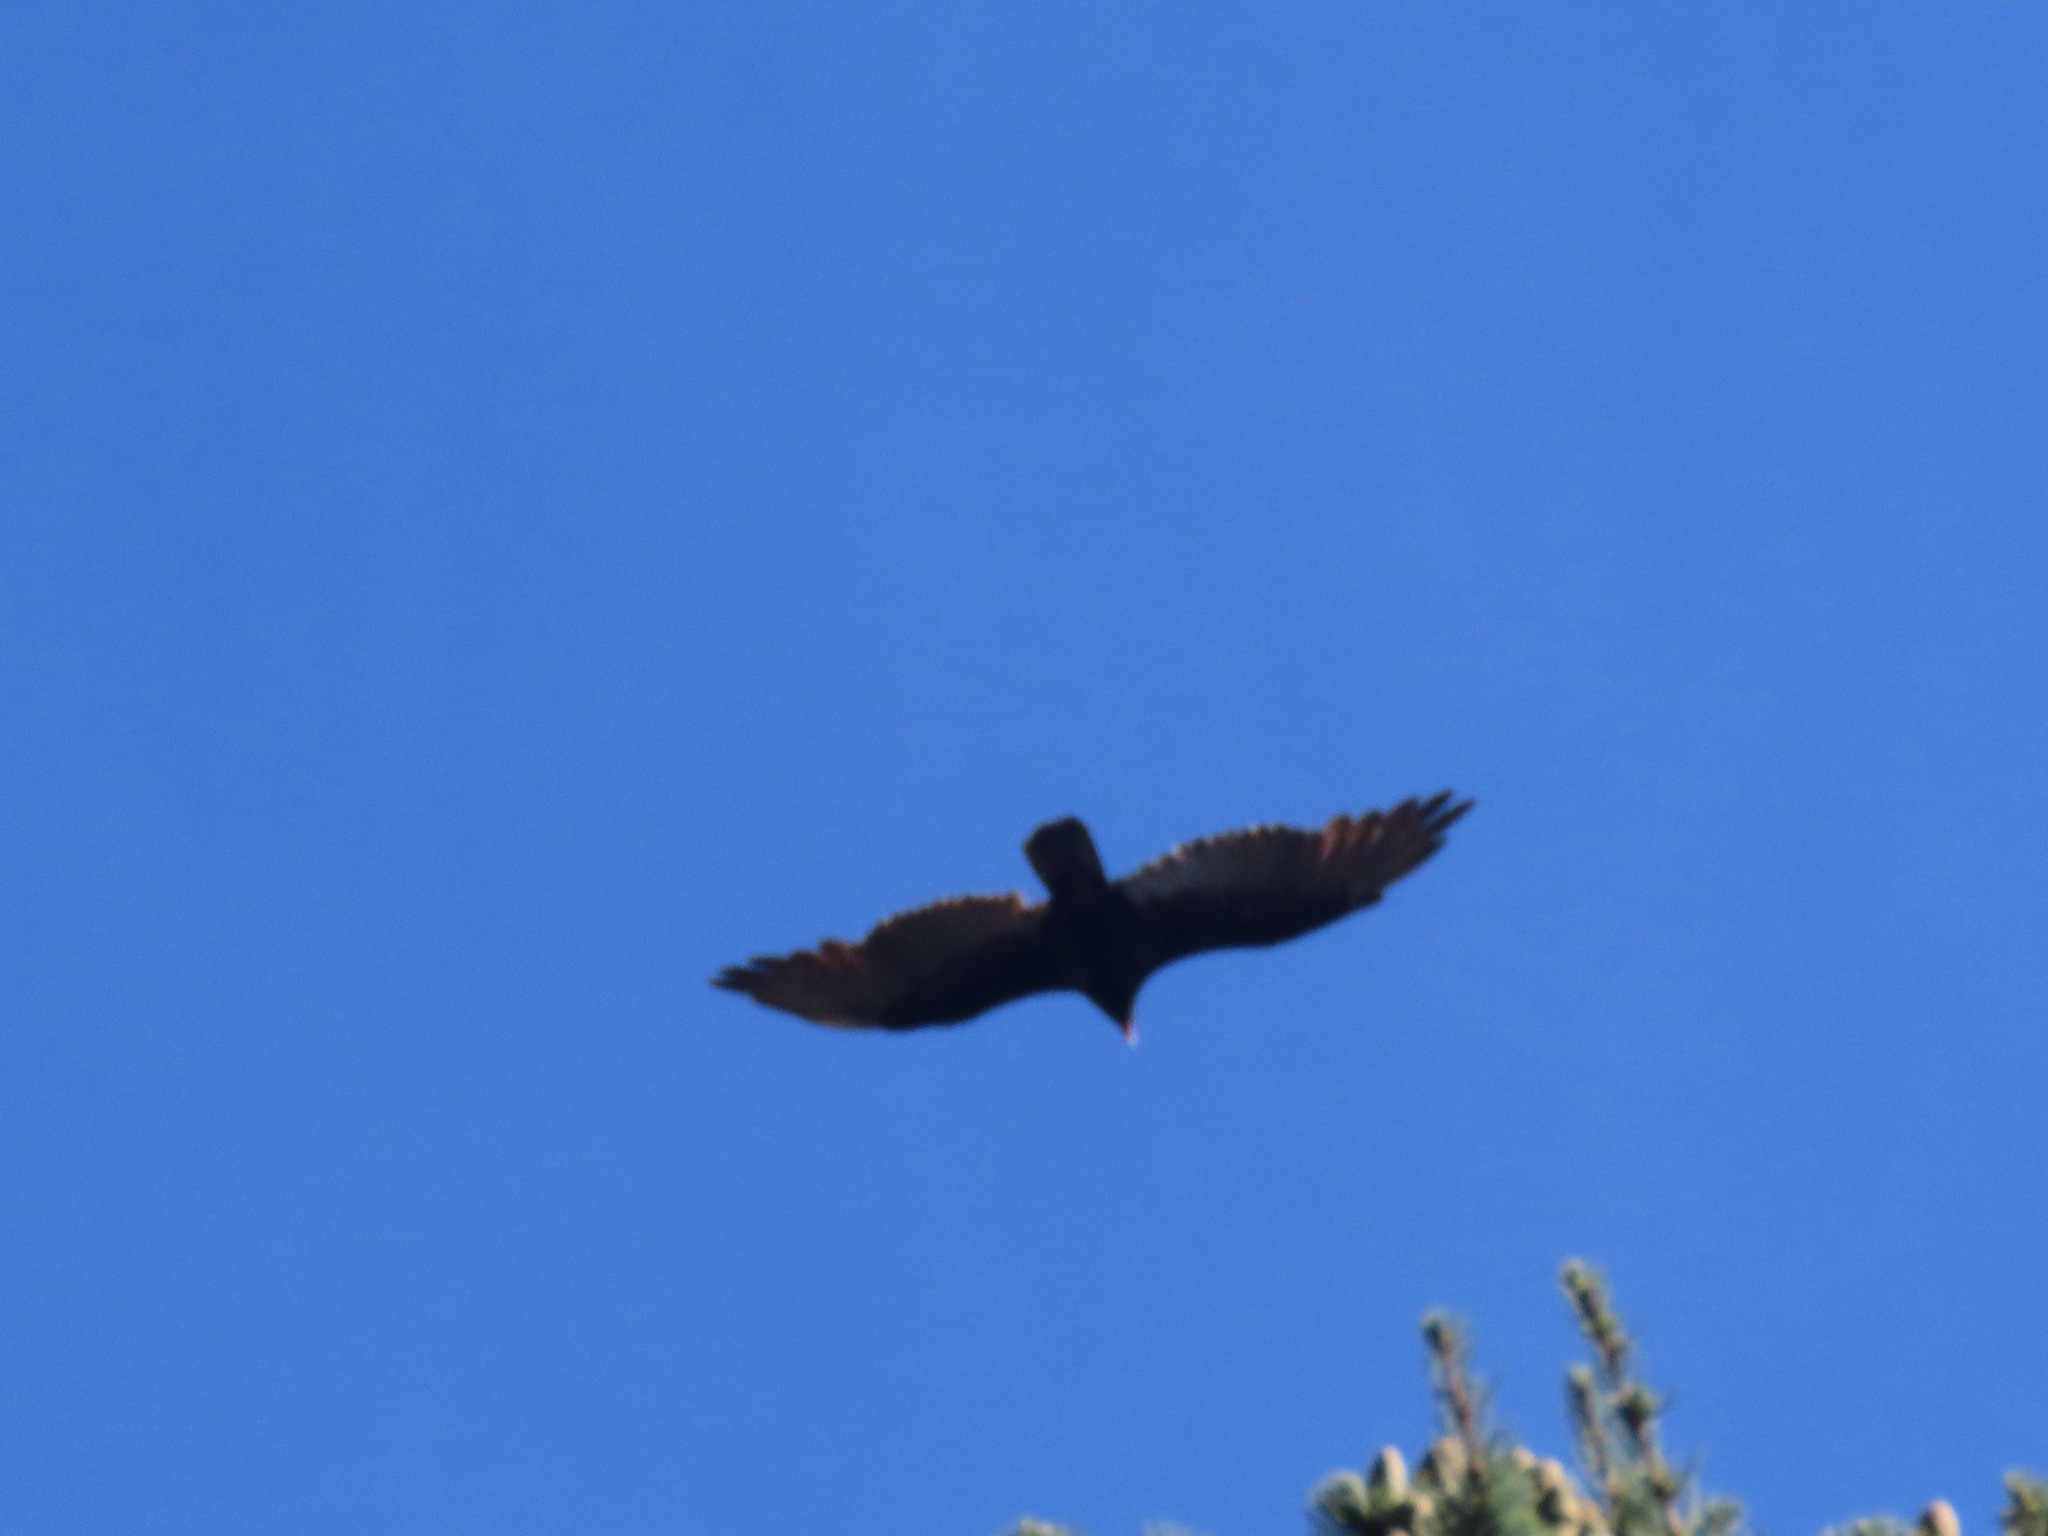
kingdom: Animalia
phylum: Chordata
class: Aves
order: Accipitriformes
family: Cathartidae
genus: Cathartes
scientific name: Cathartes aura
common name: Turkey vulture
